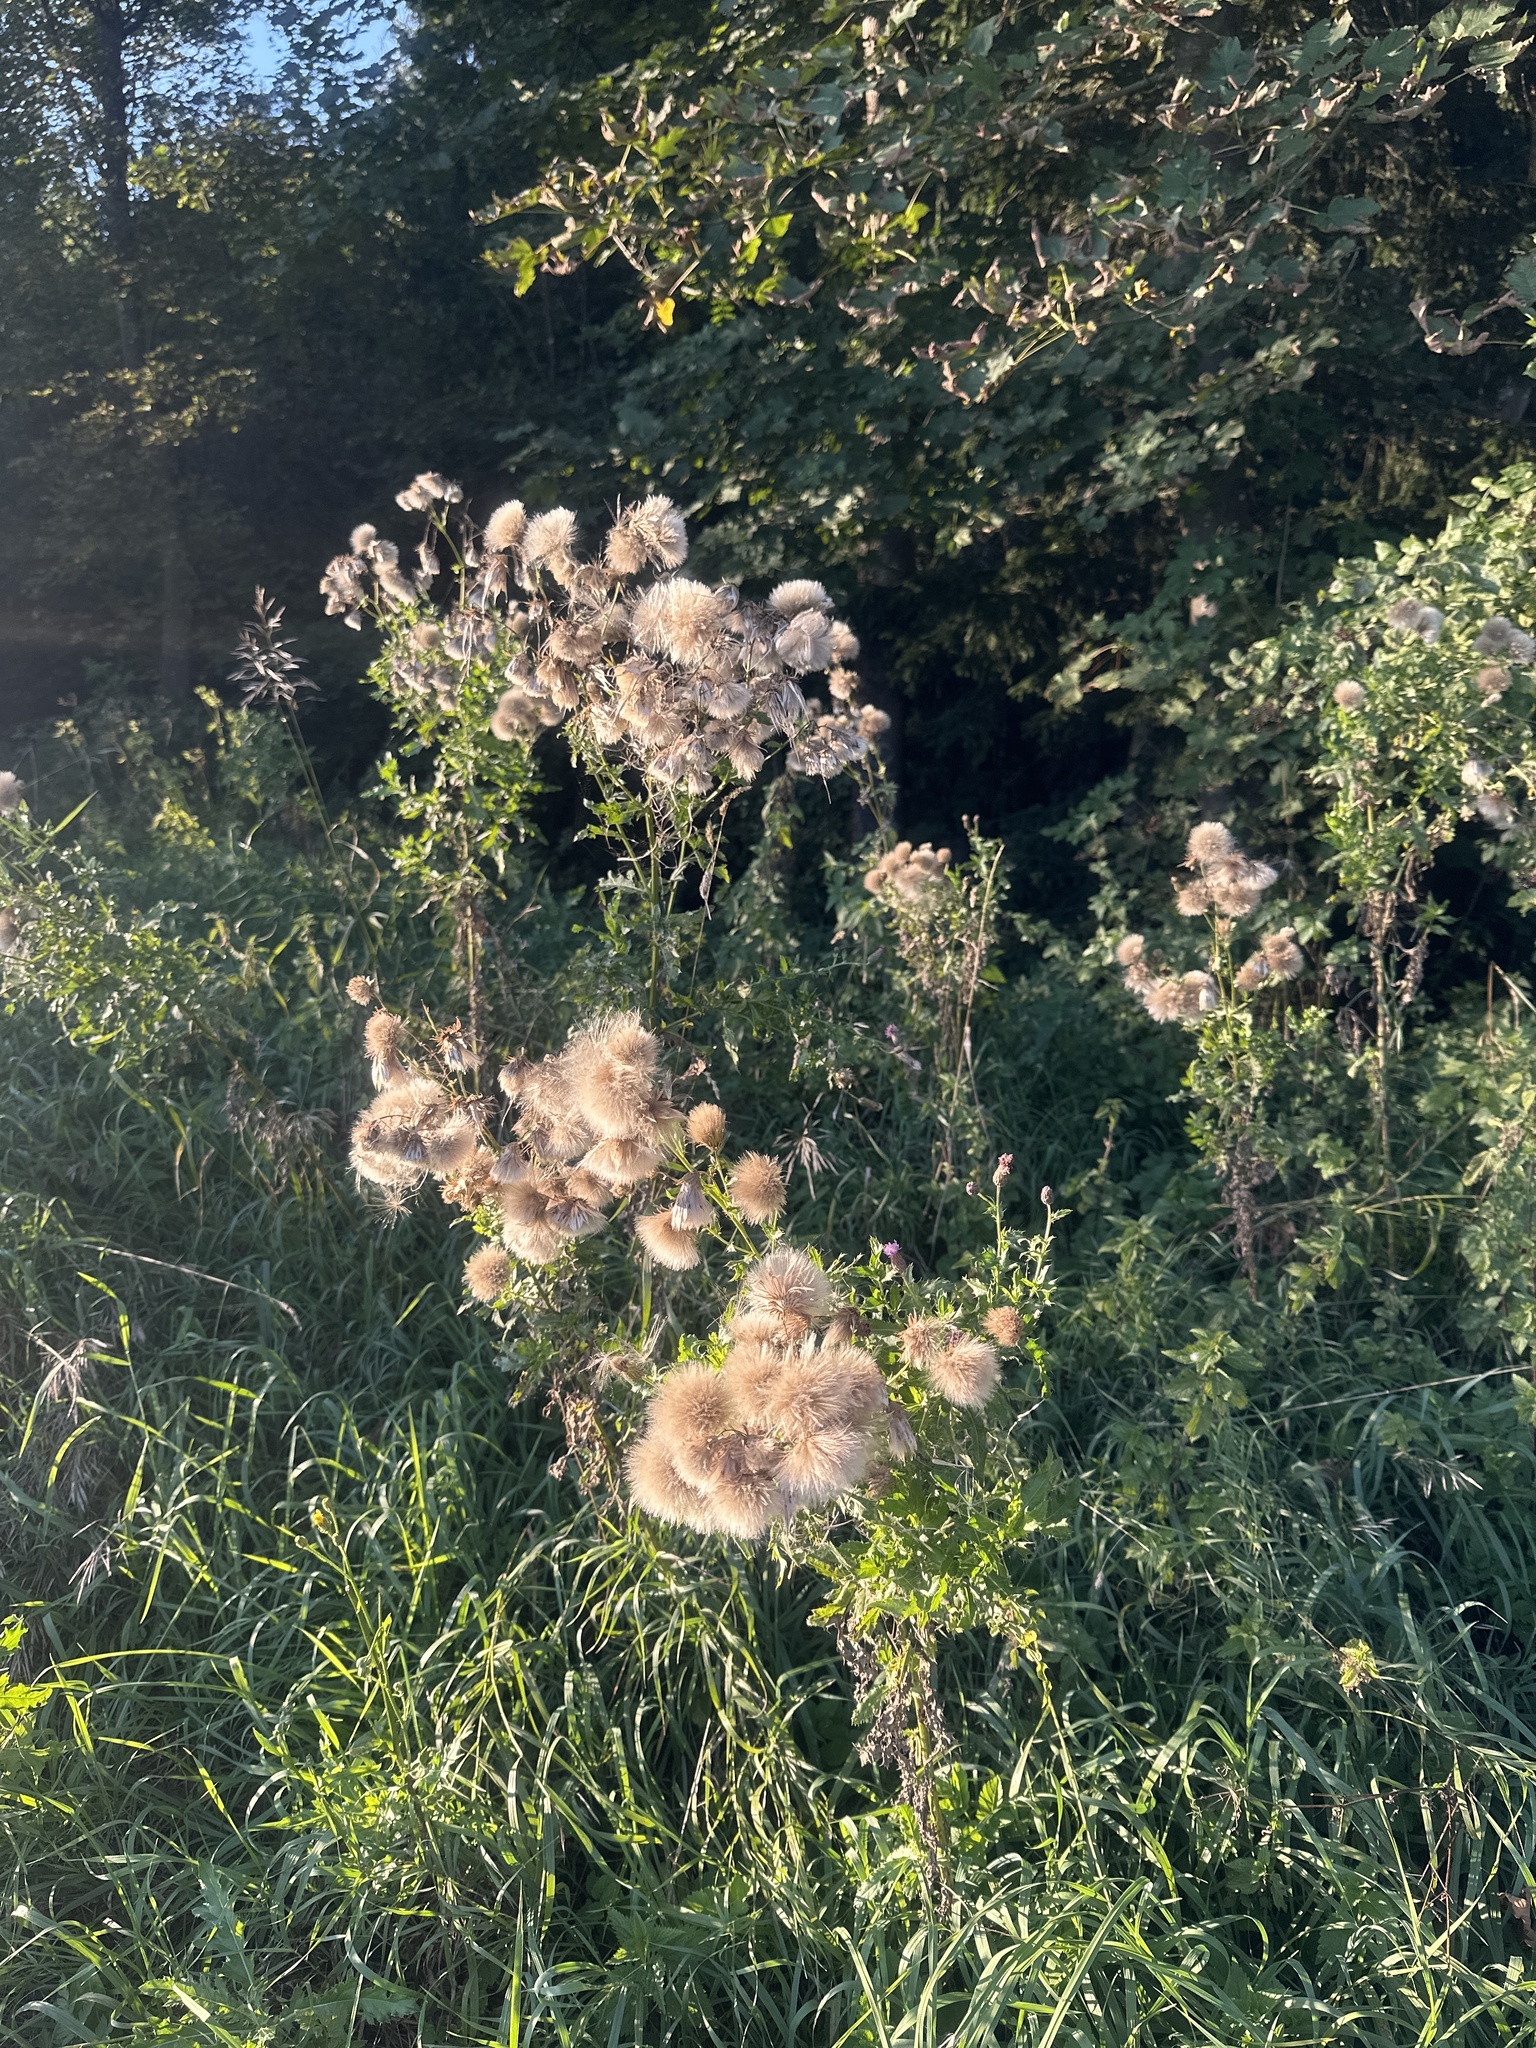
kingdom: Plantae
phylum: Tracheophyta
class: Magnoliopsida
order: Asterales
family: Asteraceae
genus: Cirsium
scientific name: Cirsium arvense
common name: Creeping thistle
